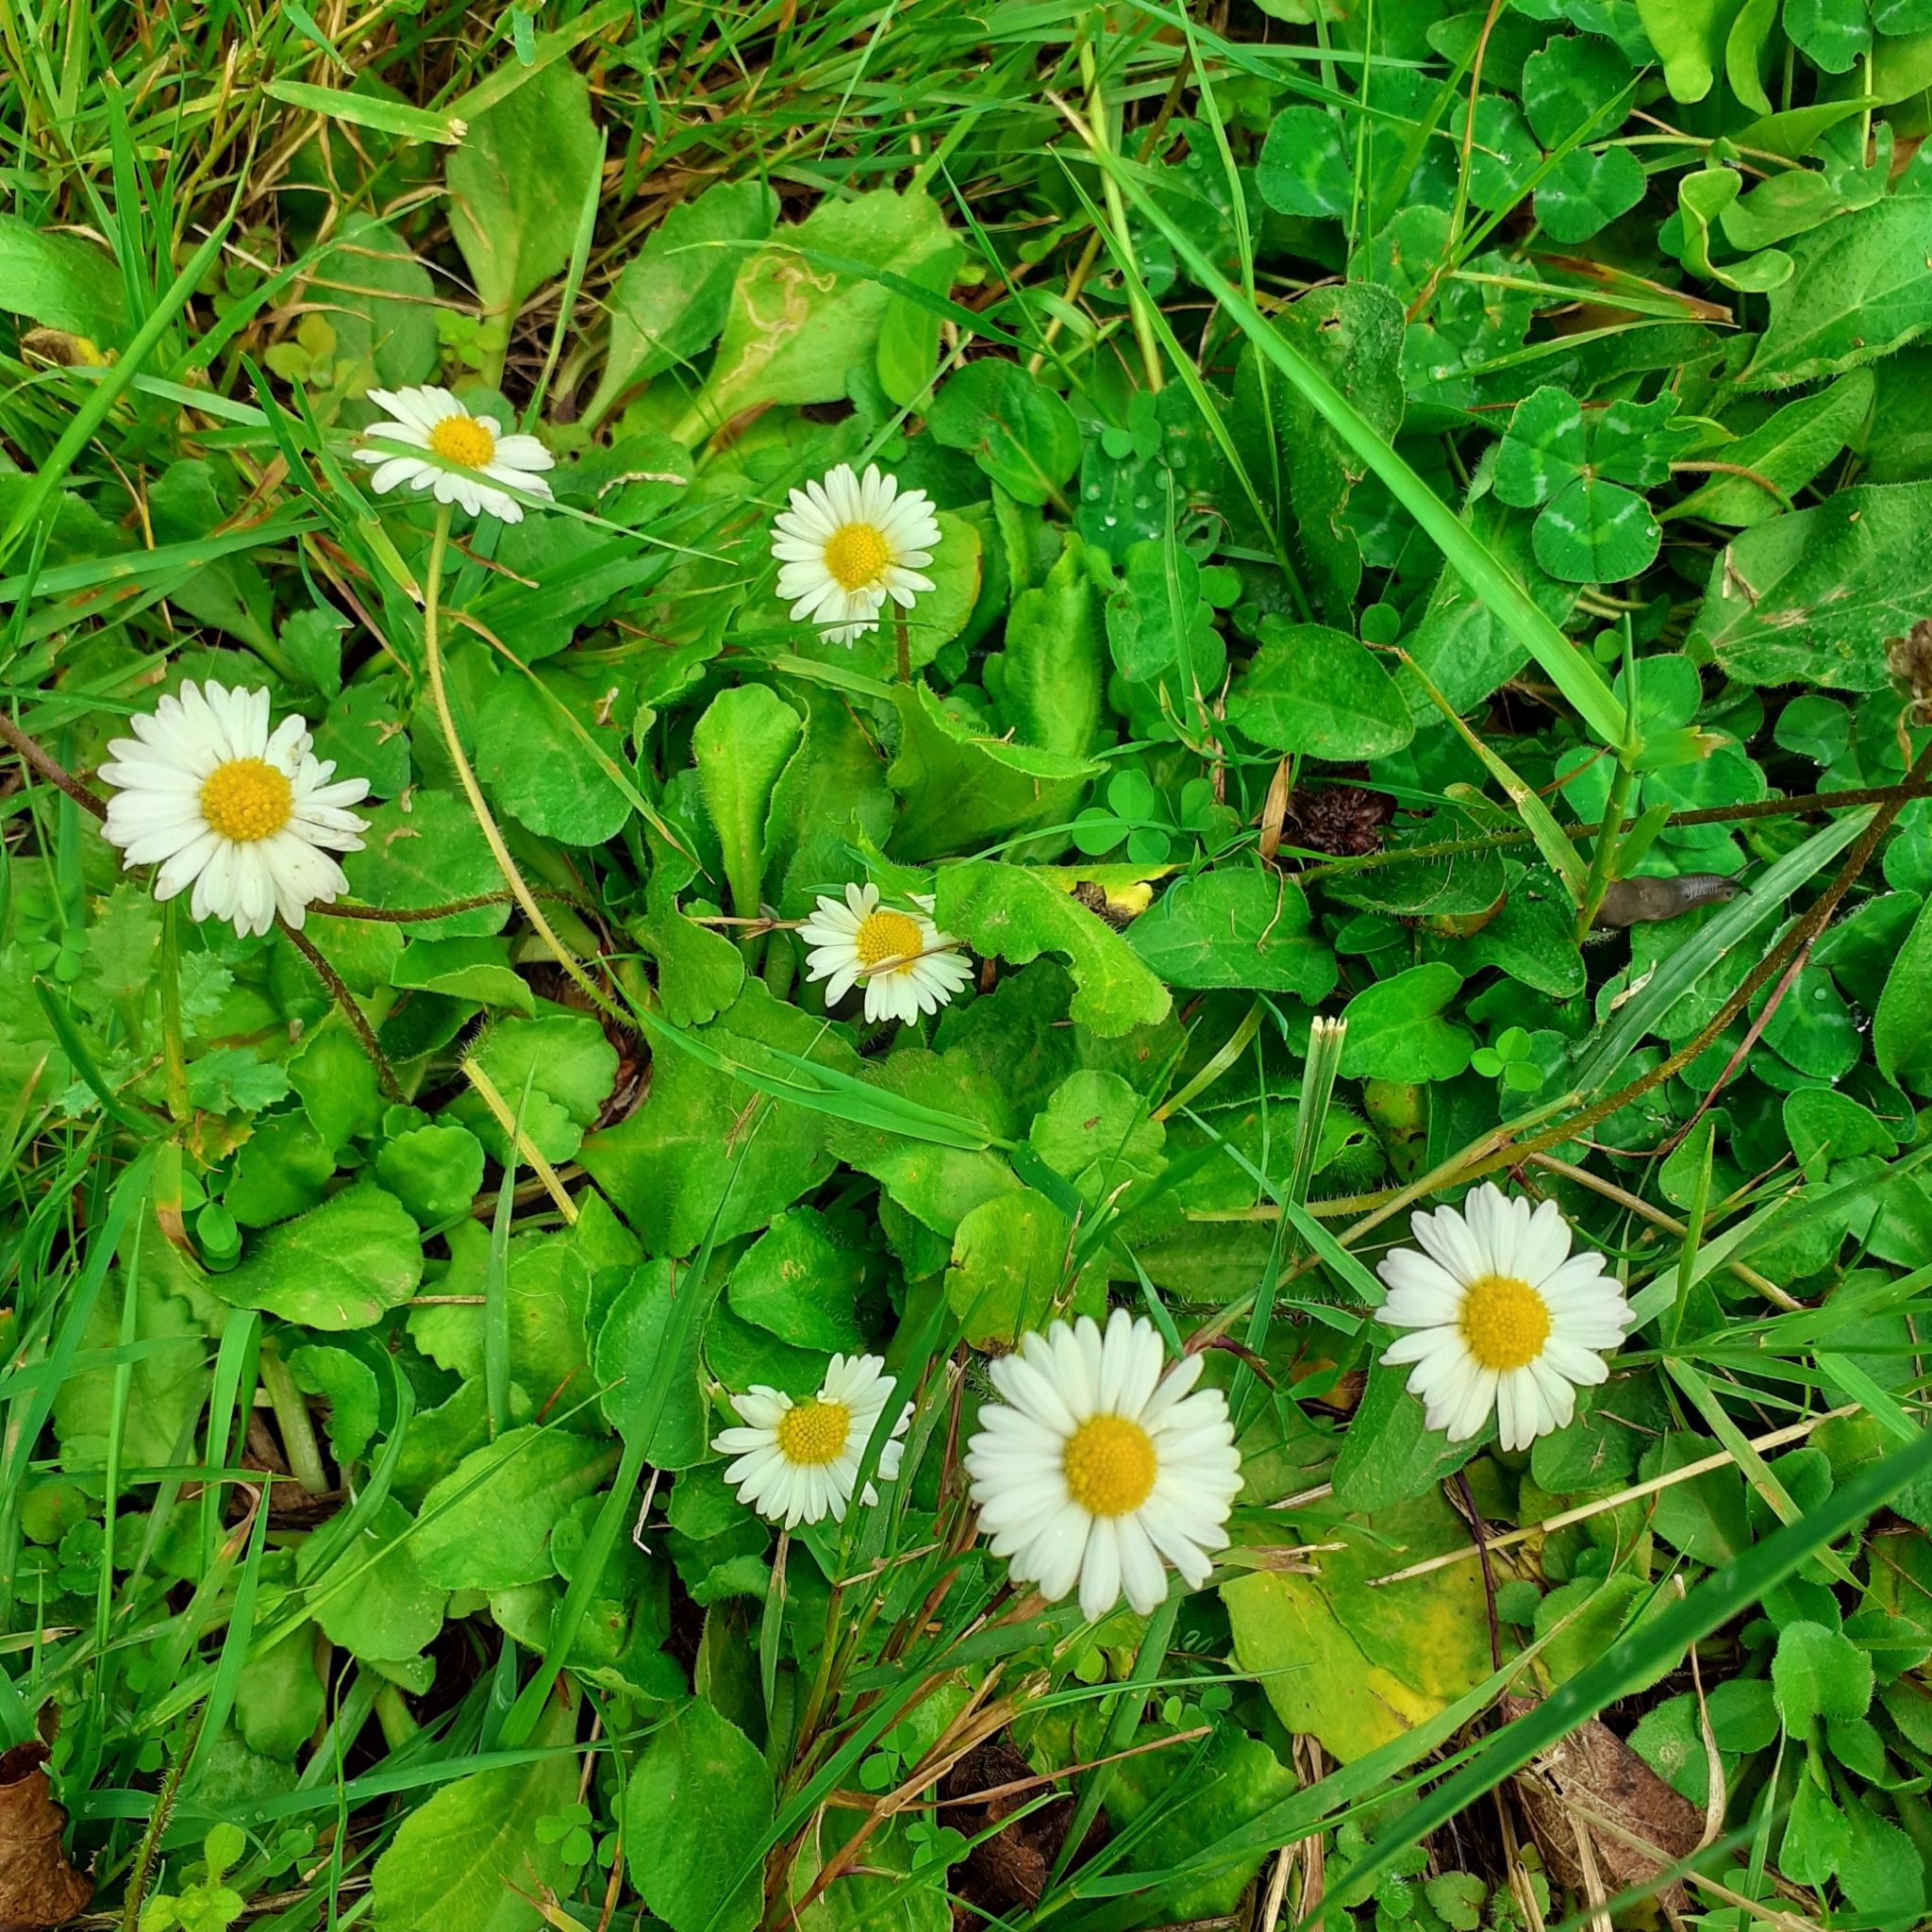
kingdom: Plantae
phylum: Tracheophyta
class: Magnoliopsida
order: Asterales
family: Asteraceae
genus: Bellis
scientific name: Bellis perennis
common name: Lawndaisy
